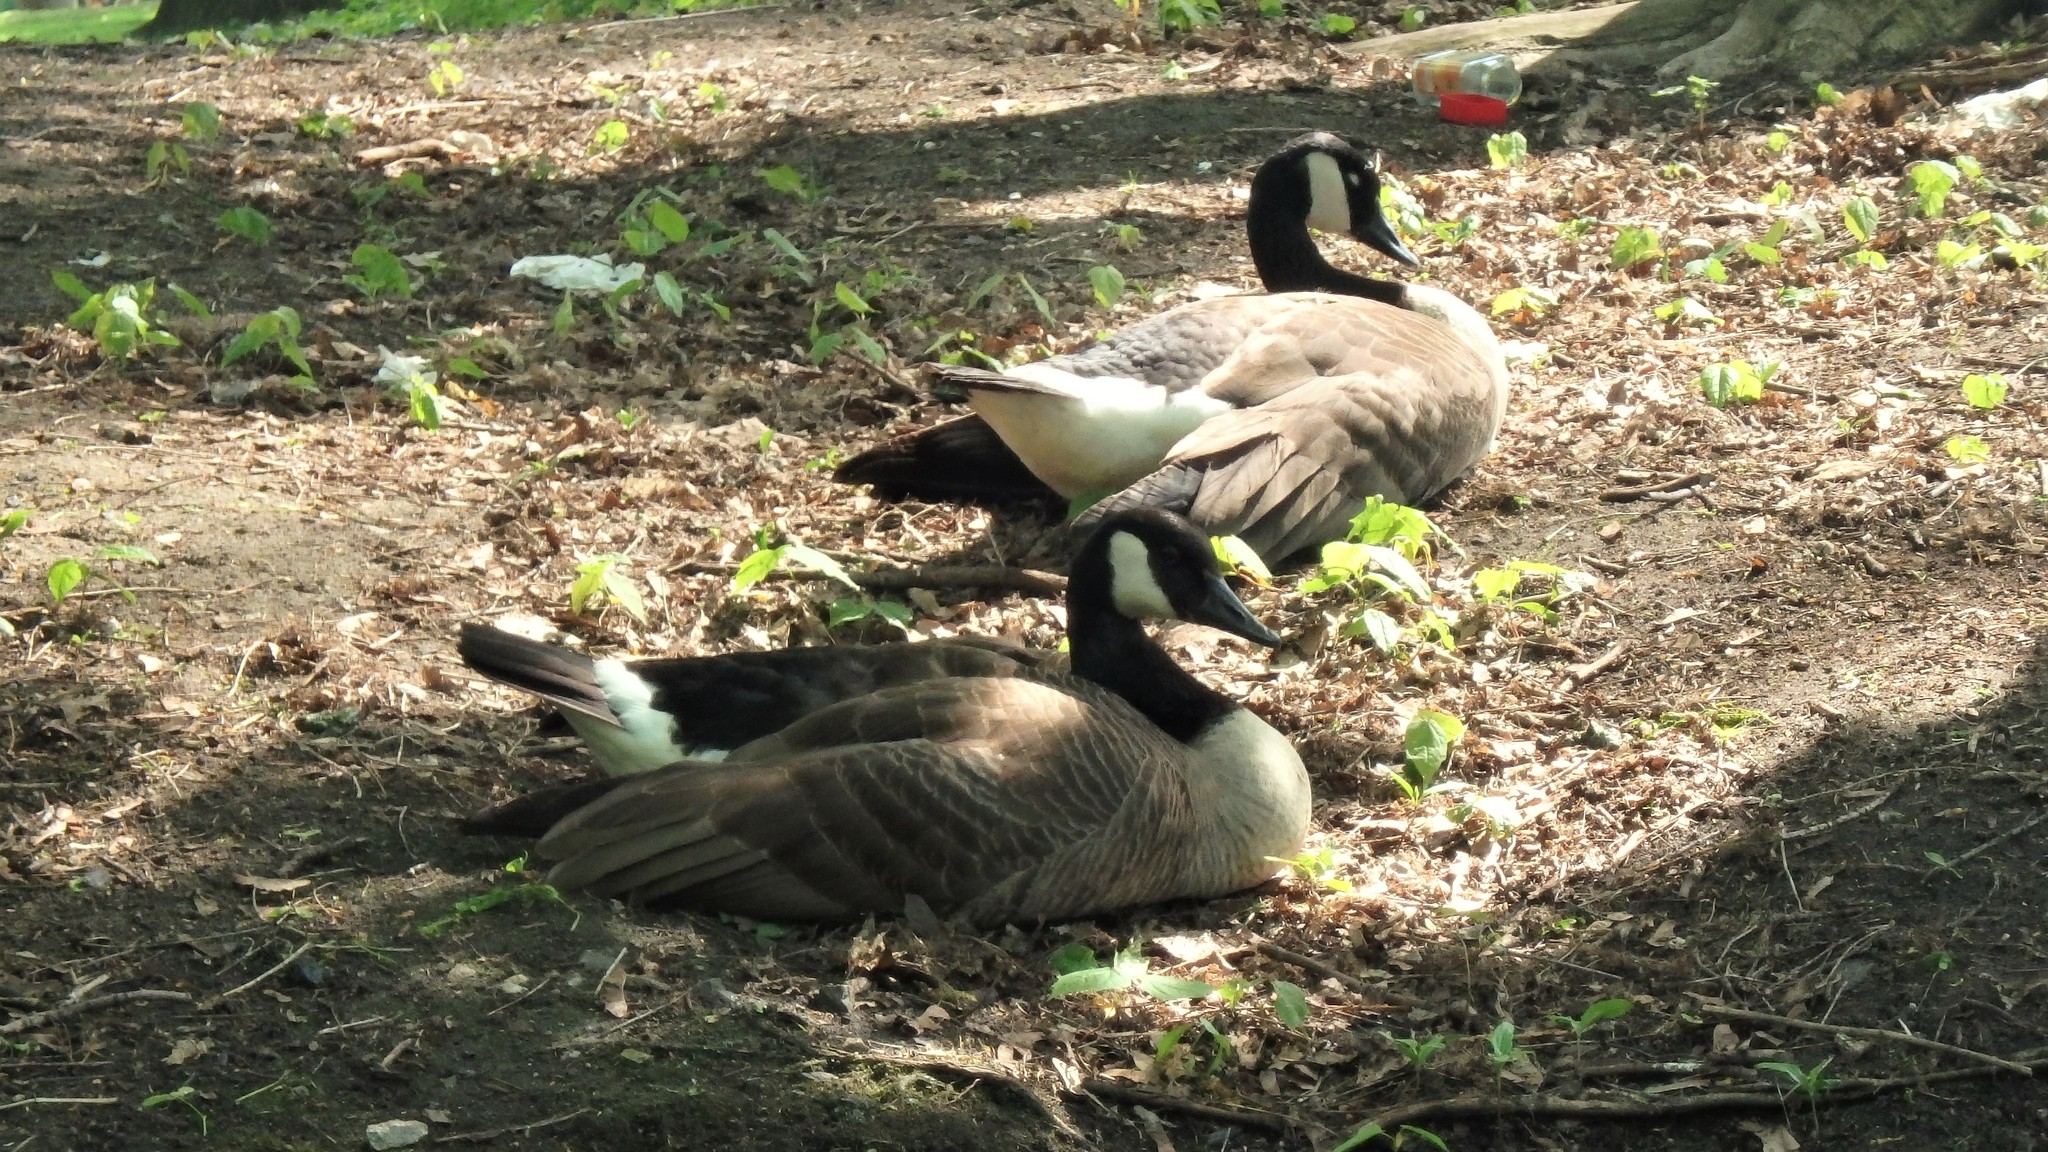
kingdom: Animalia
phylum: Chordata
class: Aves
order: Anseriformes
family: Anatidae
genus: Branta
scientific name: Branta canadensis
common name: Canada goose
